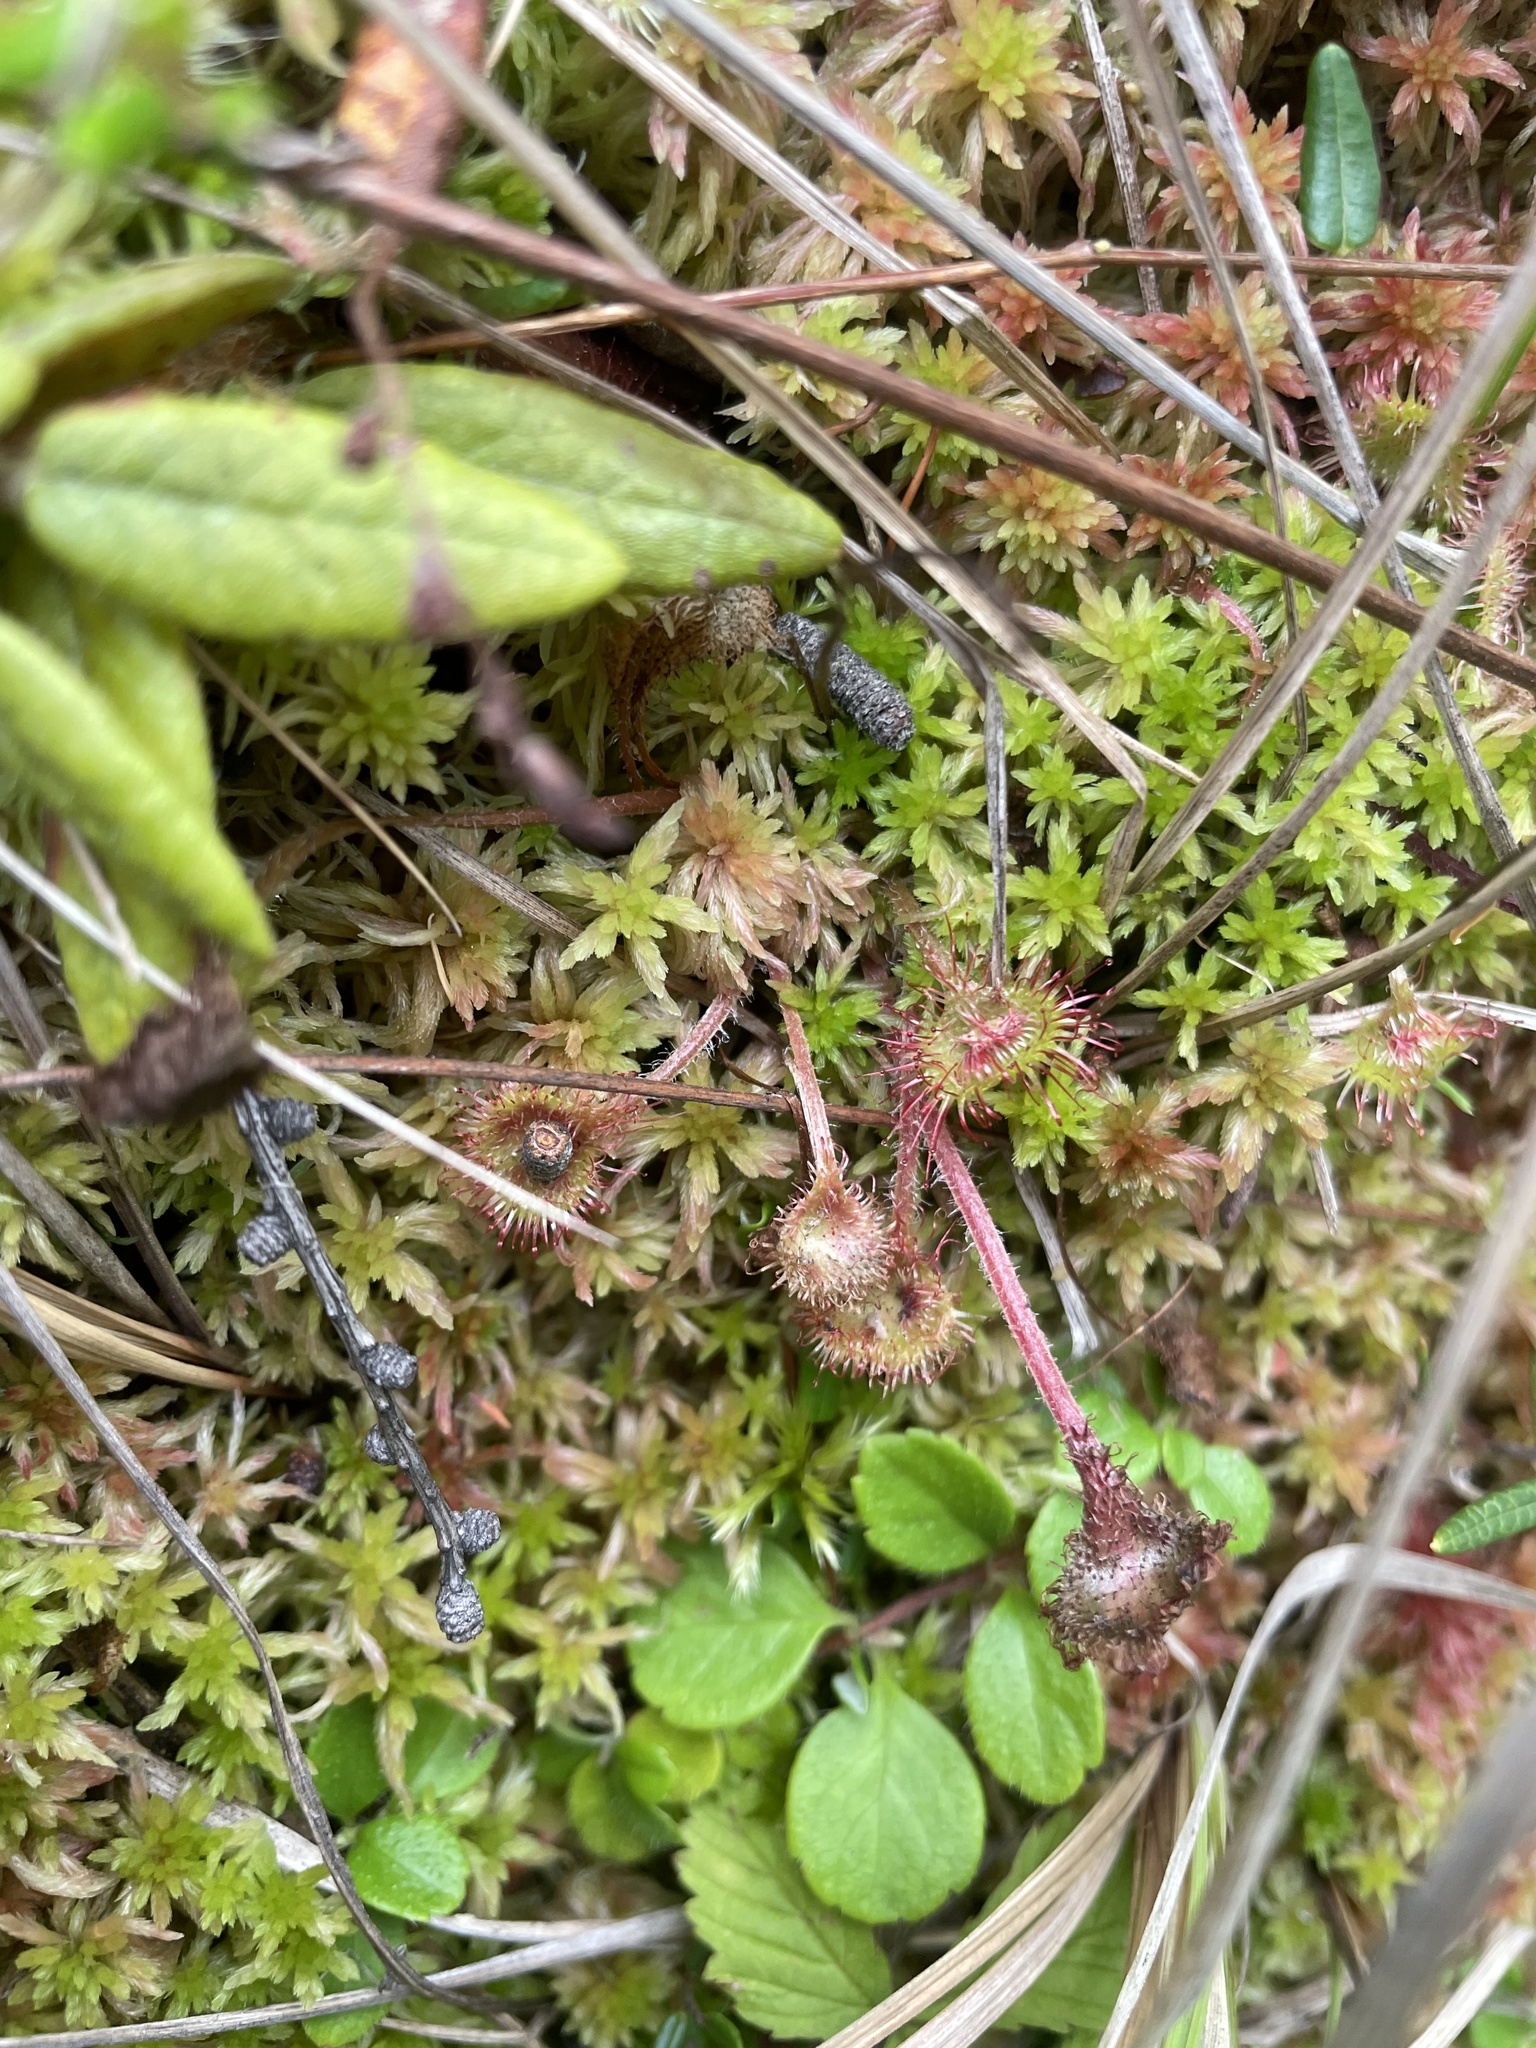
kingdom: Plantae
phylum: Tracheophyta
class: Magnoliopsida
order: Caryophyllales
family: Droseraceae
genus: Drosera
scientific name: Drosera rotundifolia
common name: Round-leaved sundew
